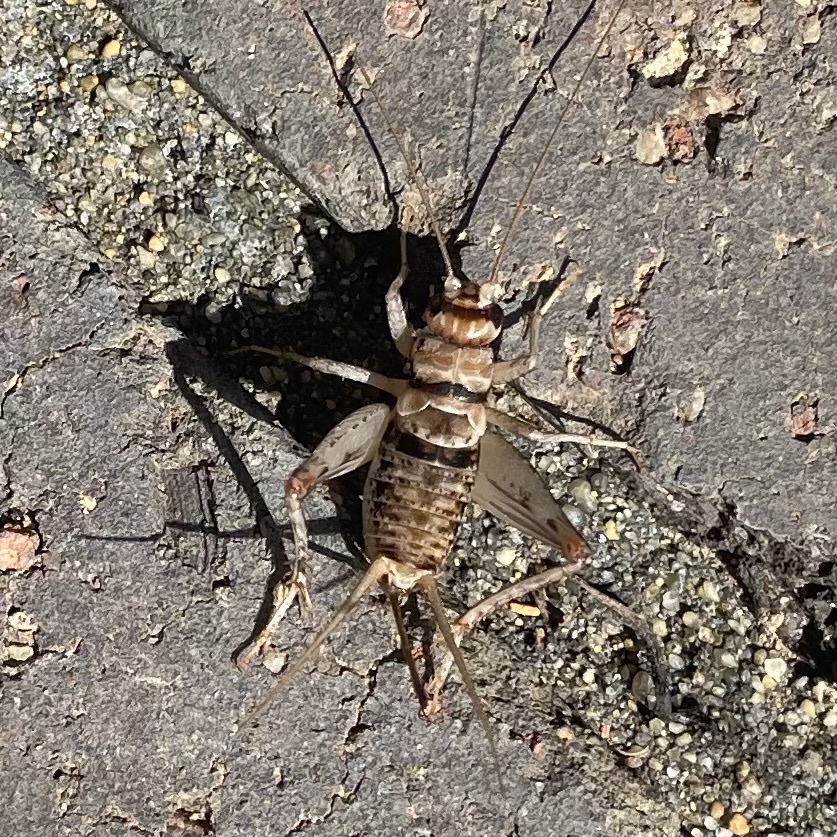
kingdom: Animalia
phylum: Arthropoda
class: Insecta
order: Orthoptera
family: Gryllidae
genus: Gryllodes
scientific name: Gryllodes sigillatus
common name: Tropical house cricket
